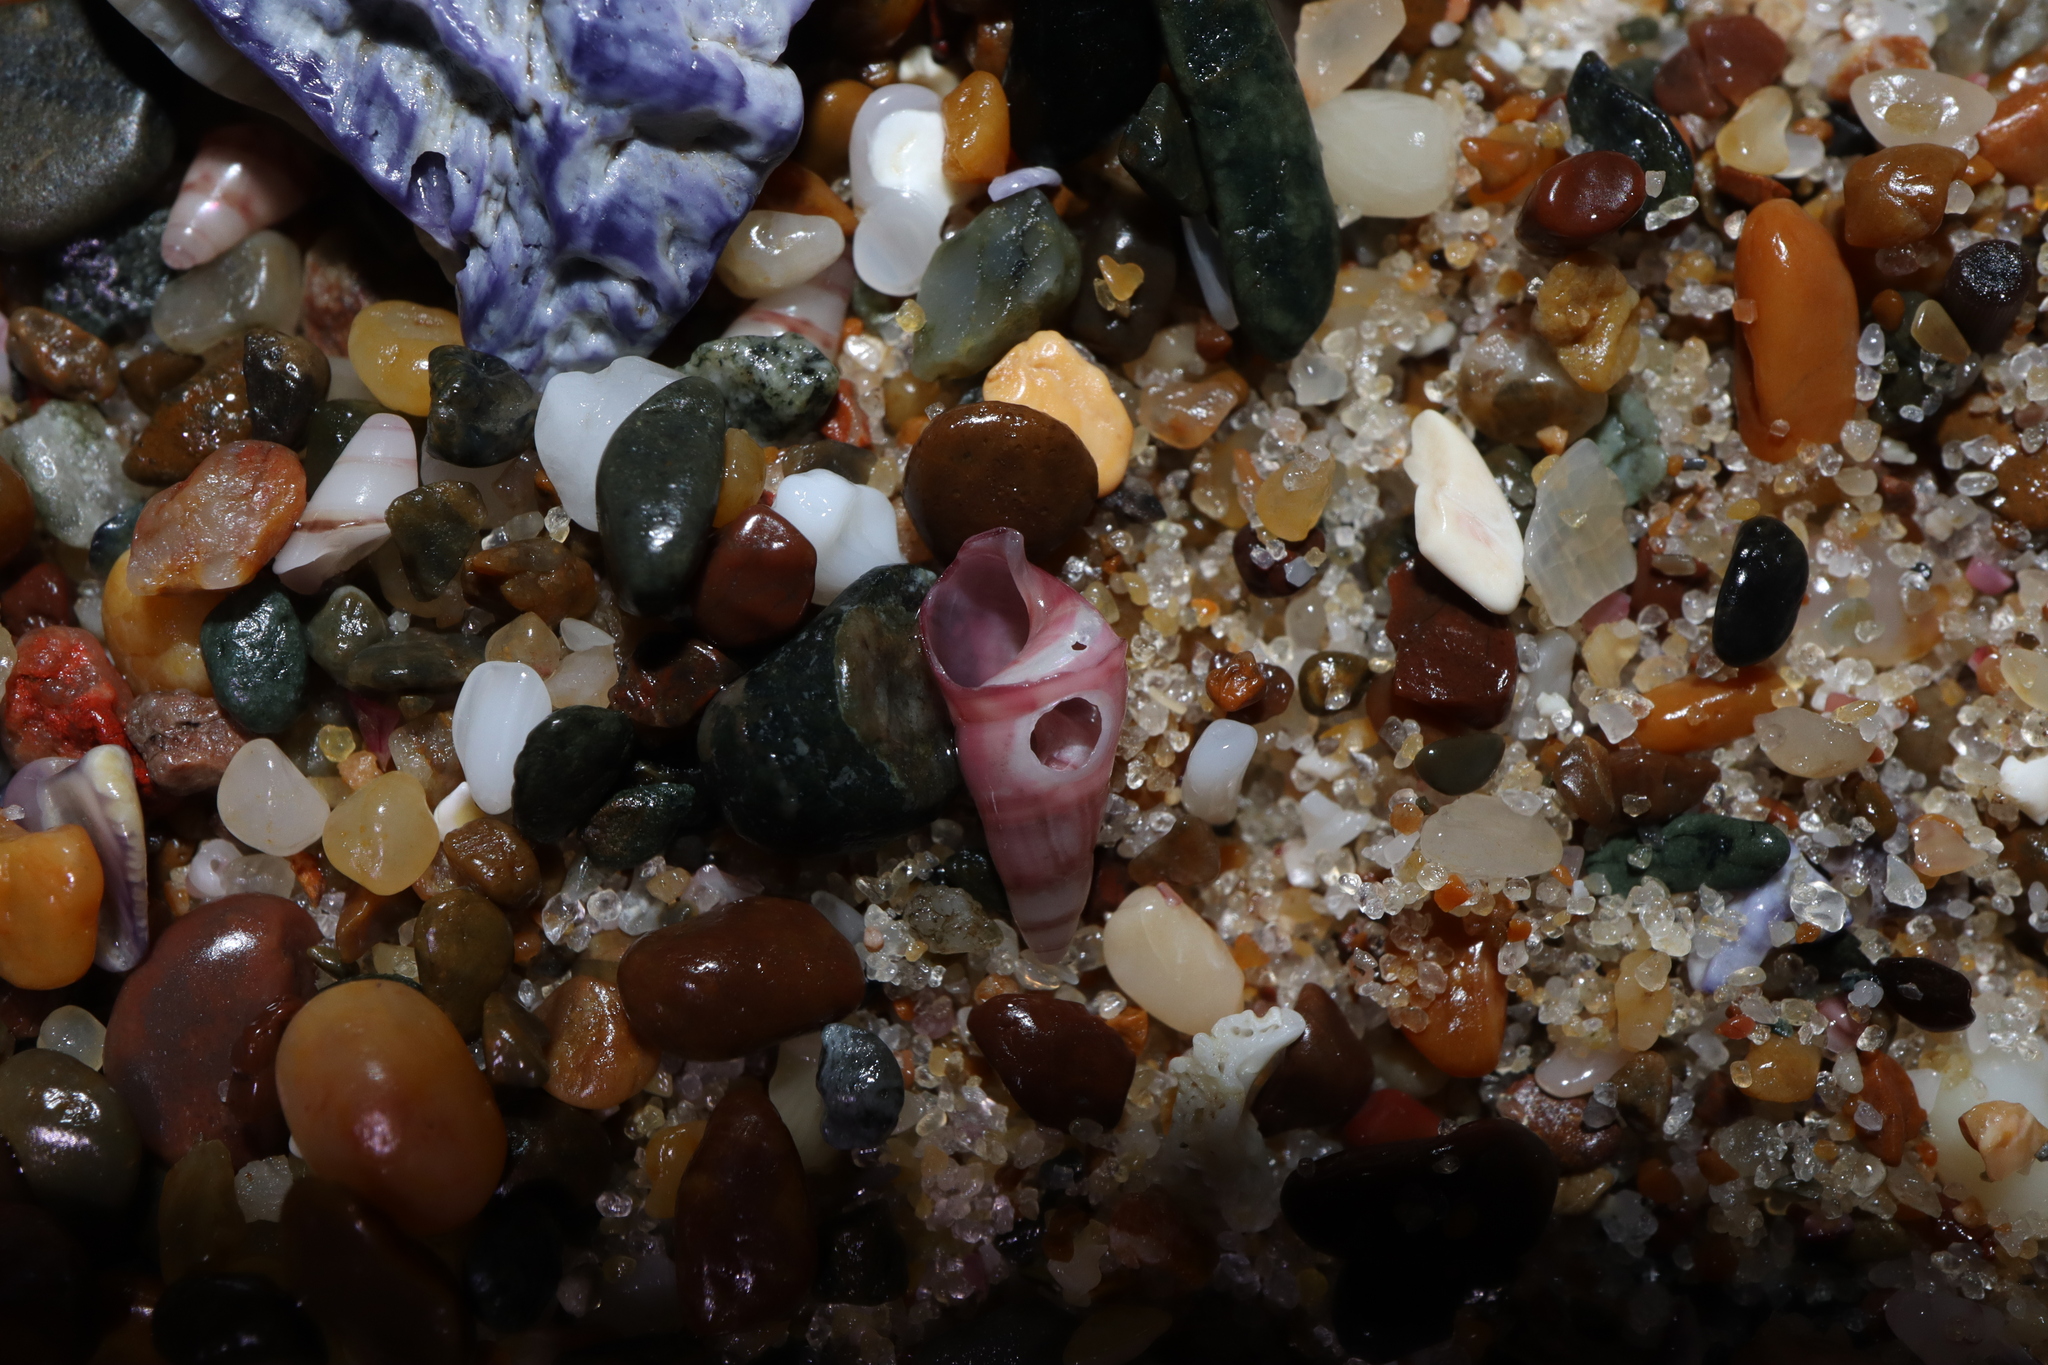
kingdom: Animalia
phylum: Mollusca
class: Gastropoda
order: Trochida
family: Trochidae
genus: Bankivia
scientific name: Bankivia fasciata
